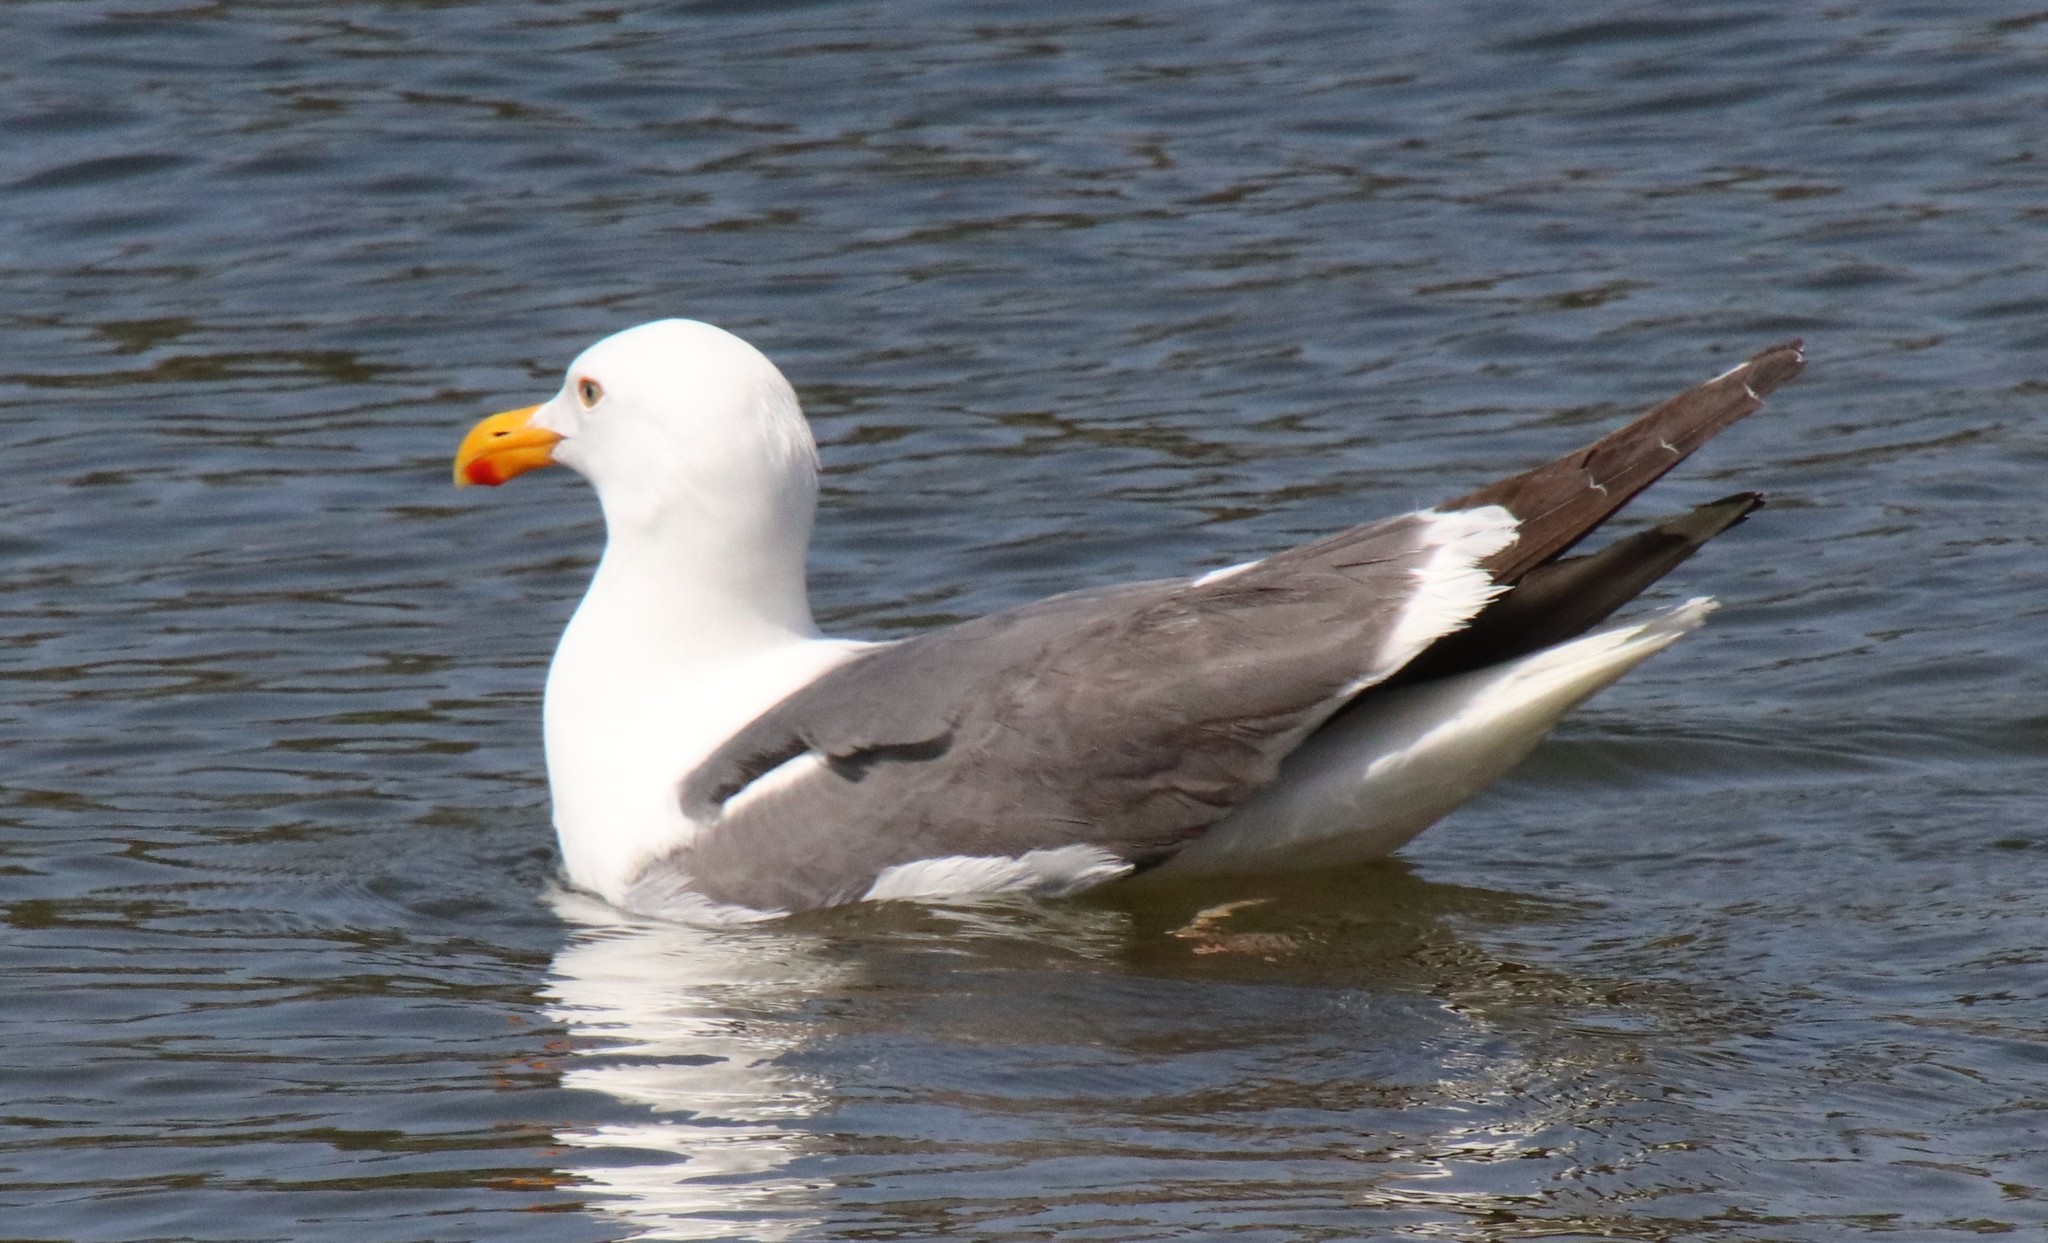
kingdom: Animalia
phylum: Chordata
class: Aves
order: Charadriiformes
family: Laridae
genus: Larus
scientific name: Larus occidentalis
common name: Western gull
